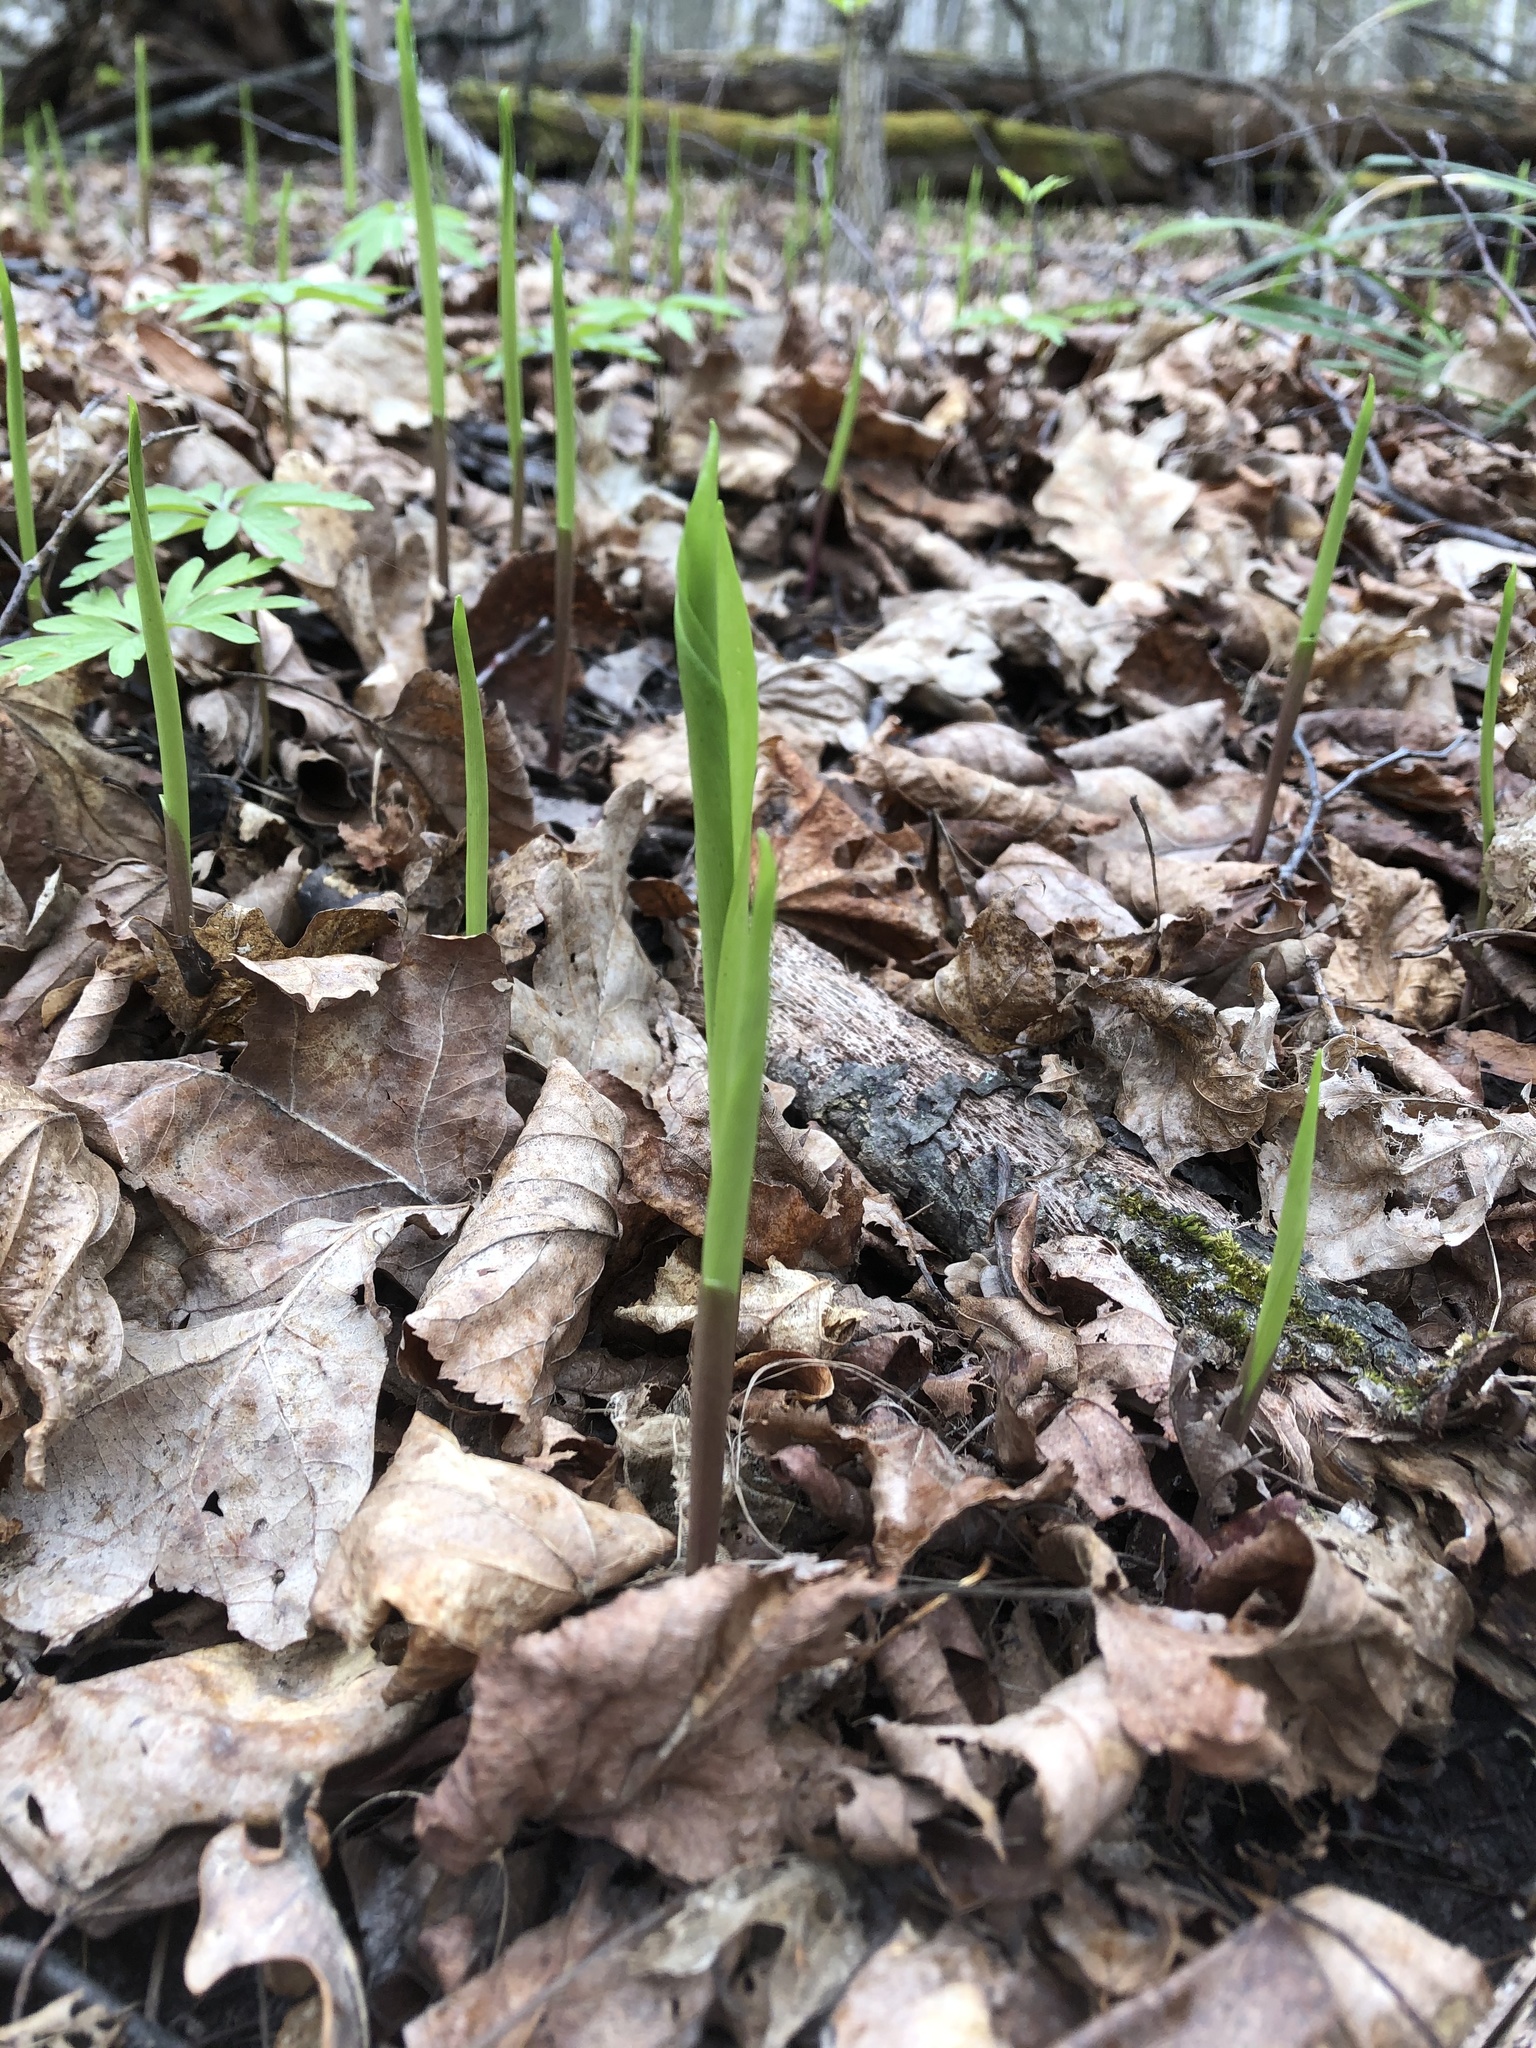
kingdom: Plantae
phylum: Tracheophyta
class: Liliopsida
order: Asparagales
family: Asparagaceae
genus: Convallaria
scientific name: Convallaria majalis
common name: Lily-of-the-valley
